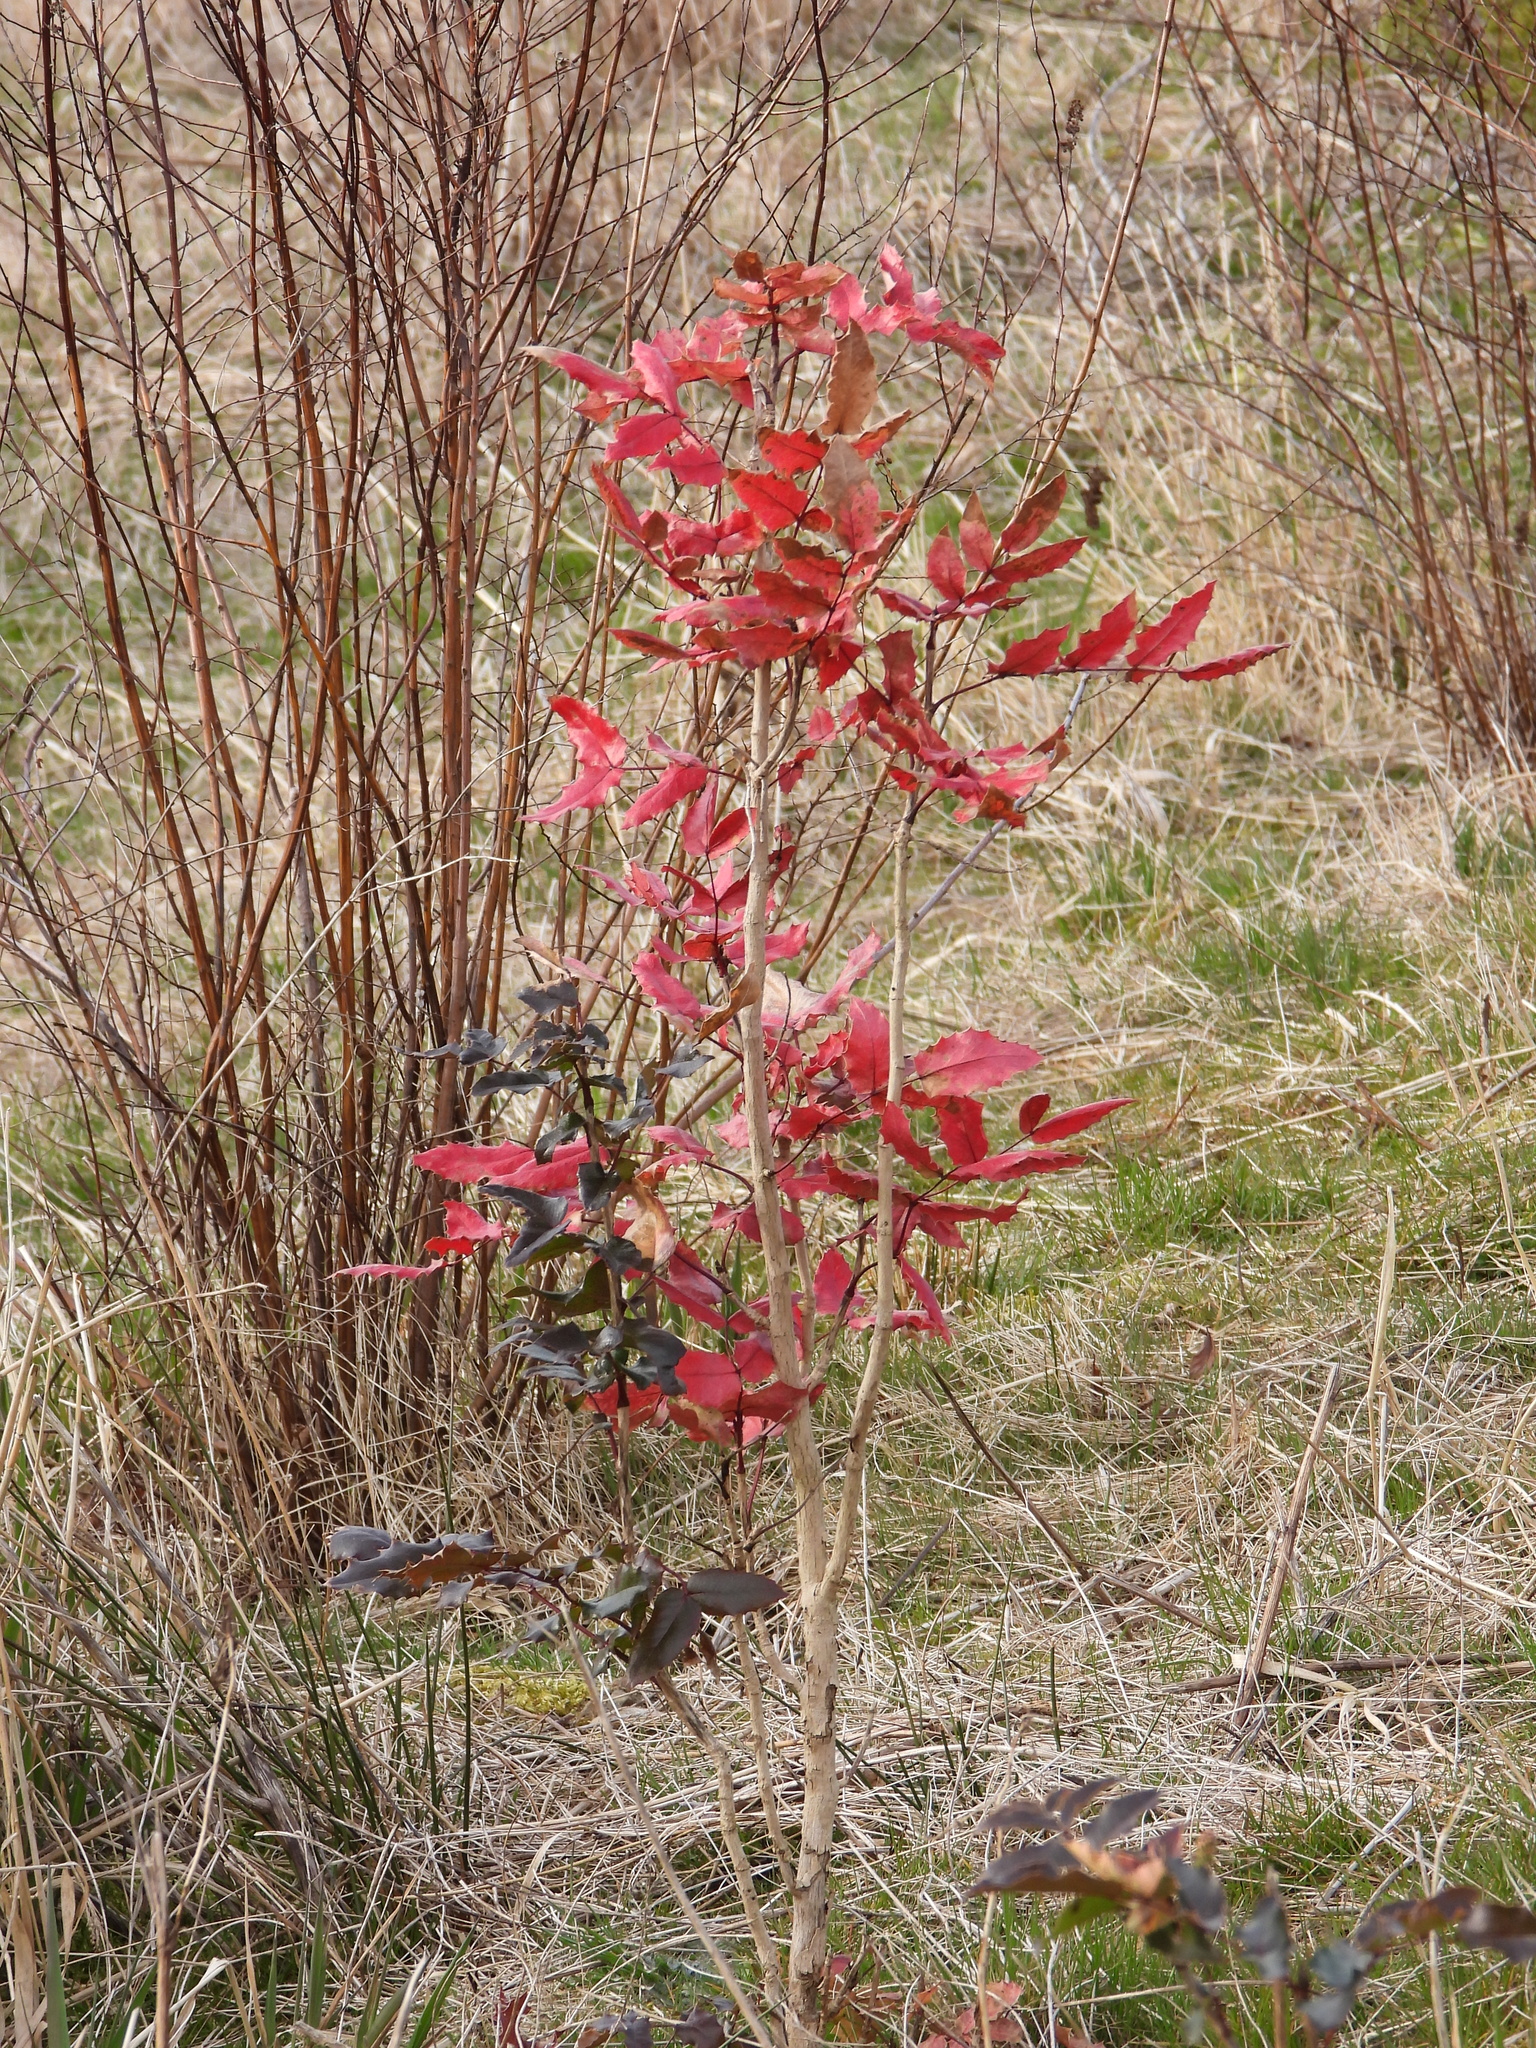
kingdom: Plantae
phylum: Tracheophyta
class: Magnoliopsida
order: Ranunculales
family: Berberidaceae
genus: Mahonia
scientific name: Mahonia aquifolium
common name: Oregon-grape
